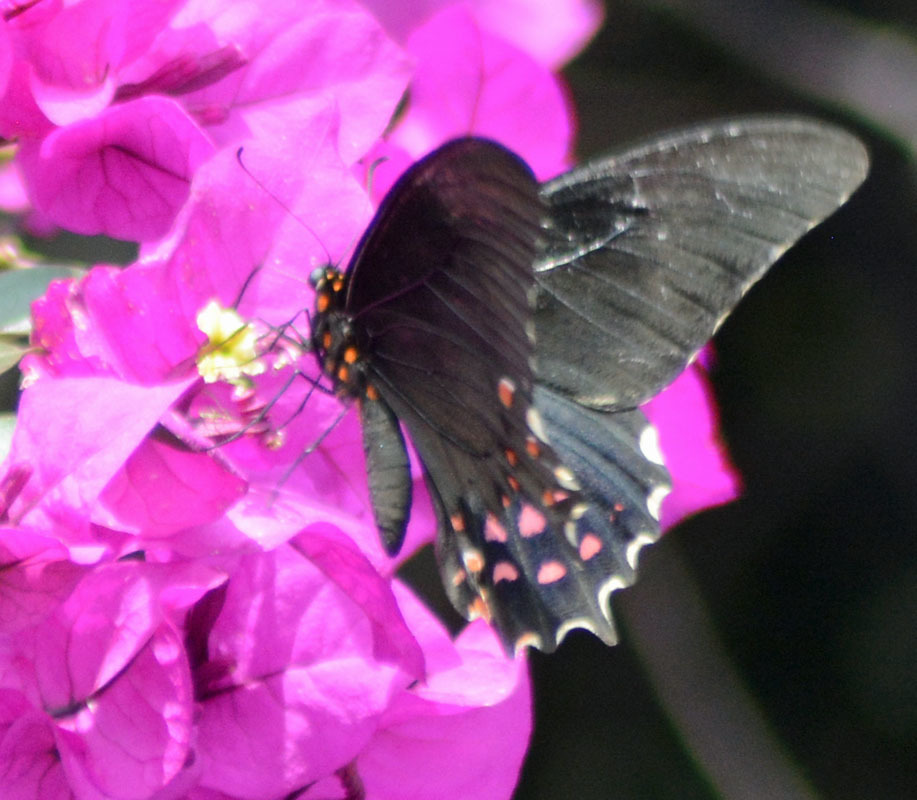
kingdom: Animalia
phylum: Arthropoda
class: Insecta
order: Lepidoptera
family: Papilionidae
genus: Heraclides
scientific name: Heraclides rogeri
